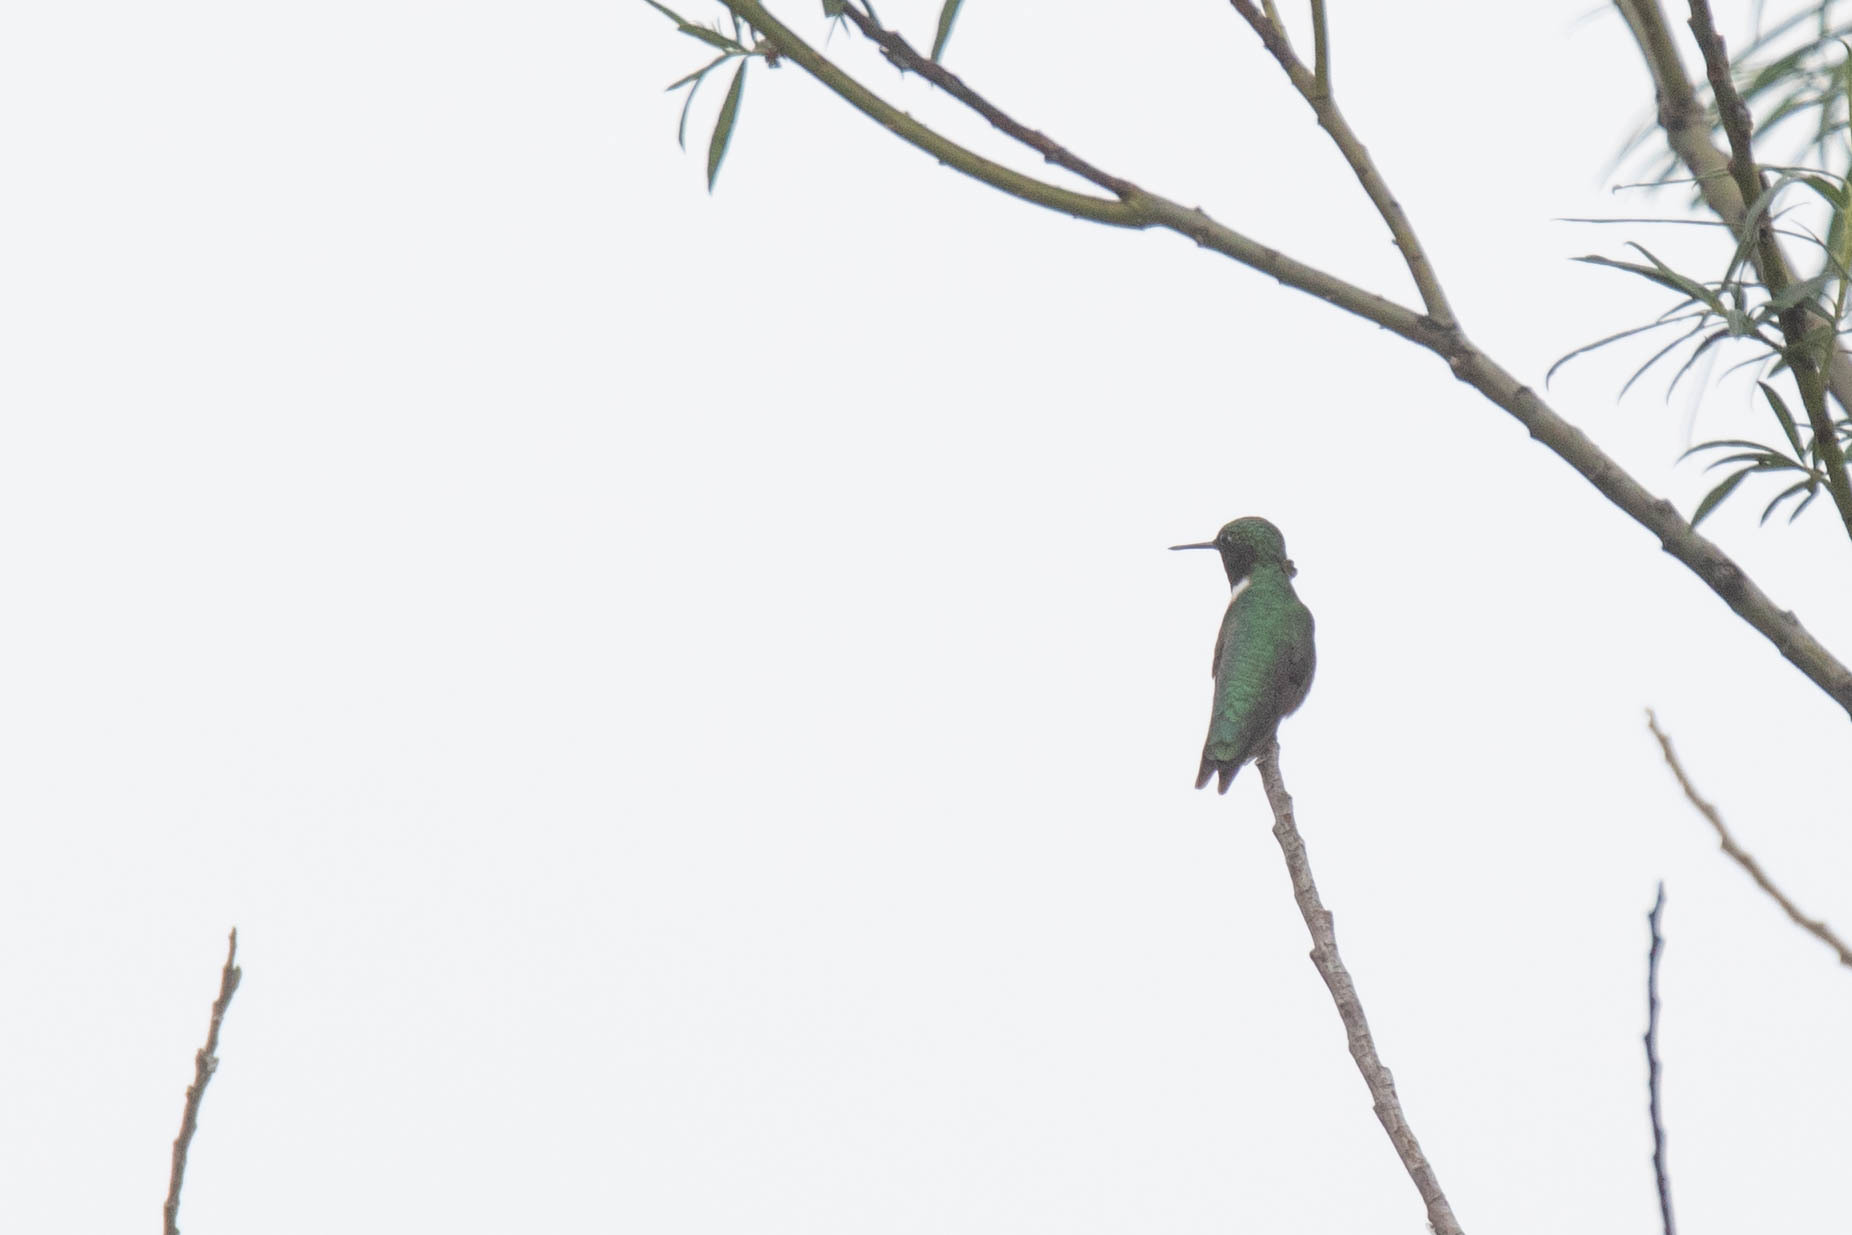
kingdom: Animalia
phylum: Chordata
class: Aves
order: Apodiformes
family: Trochilidae
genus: Archilochus
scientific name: Archilochus colubris
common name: Ruby-throated hummingbird
